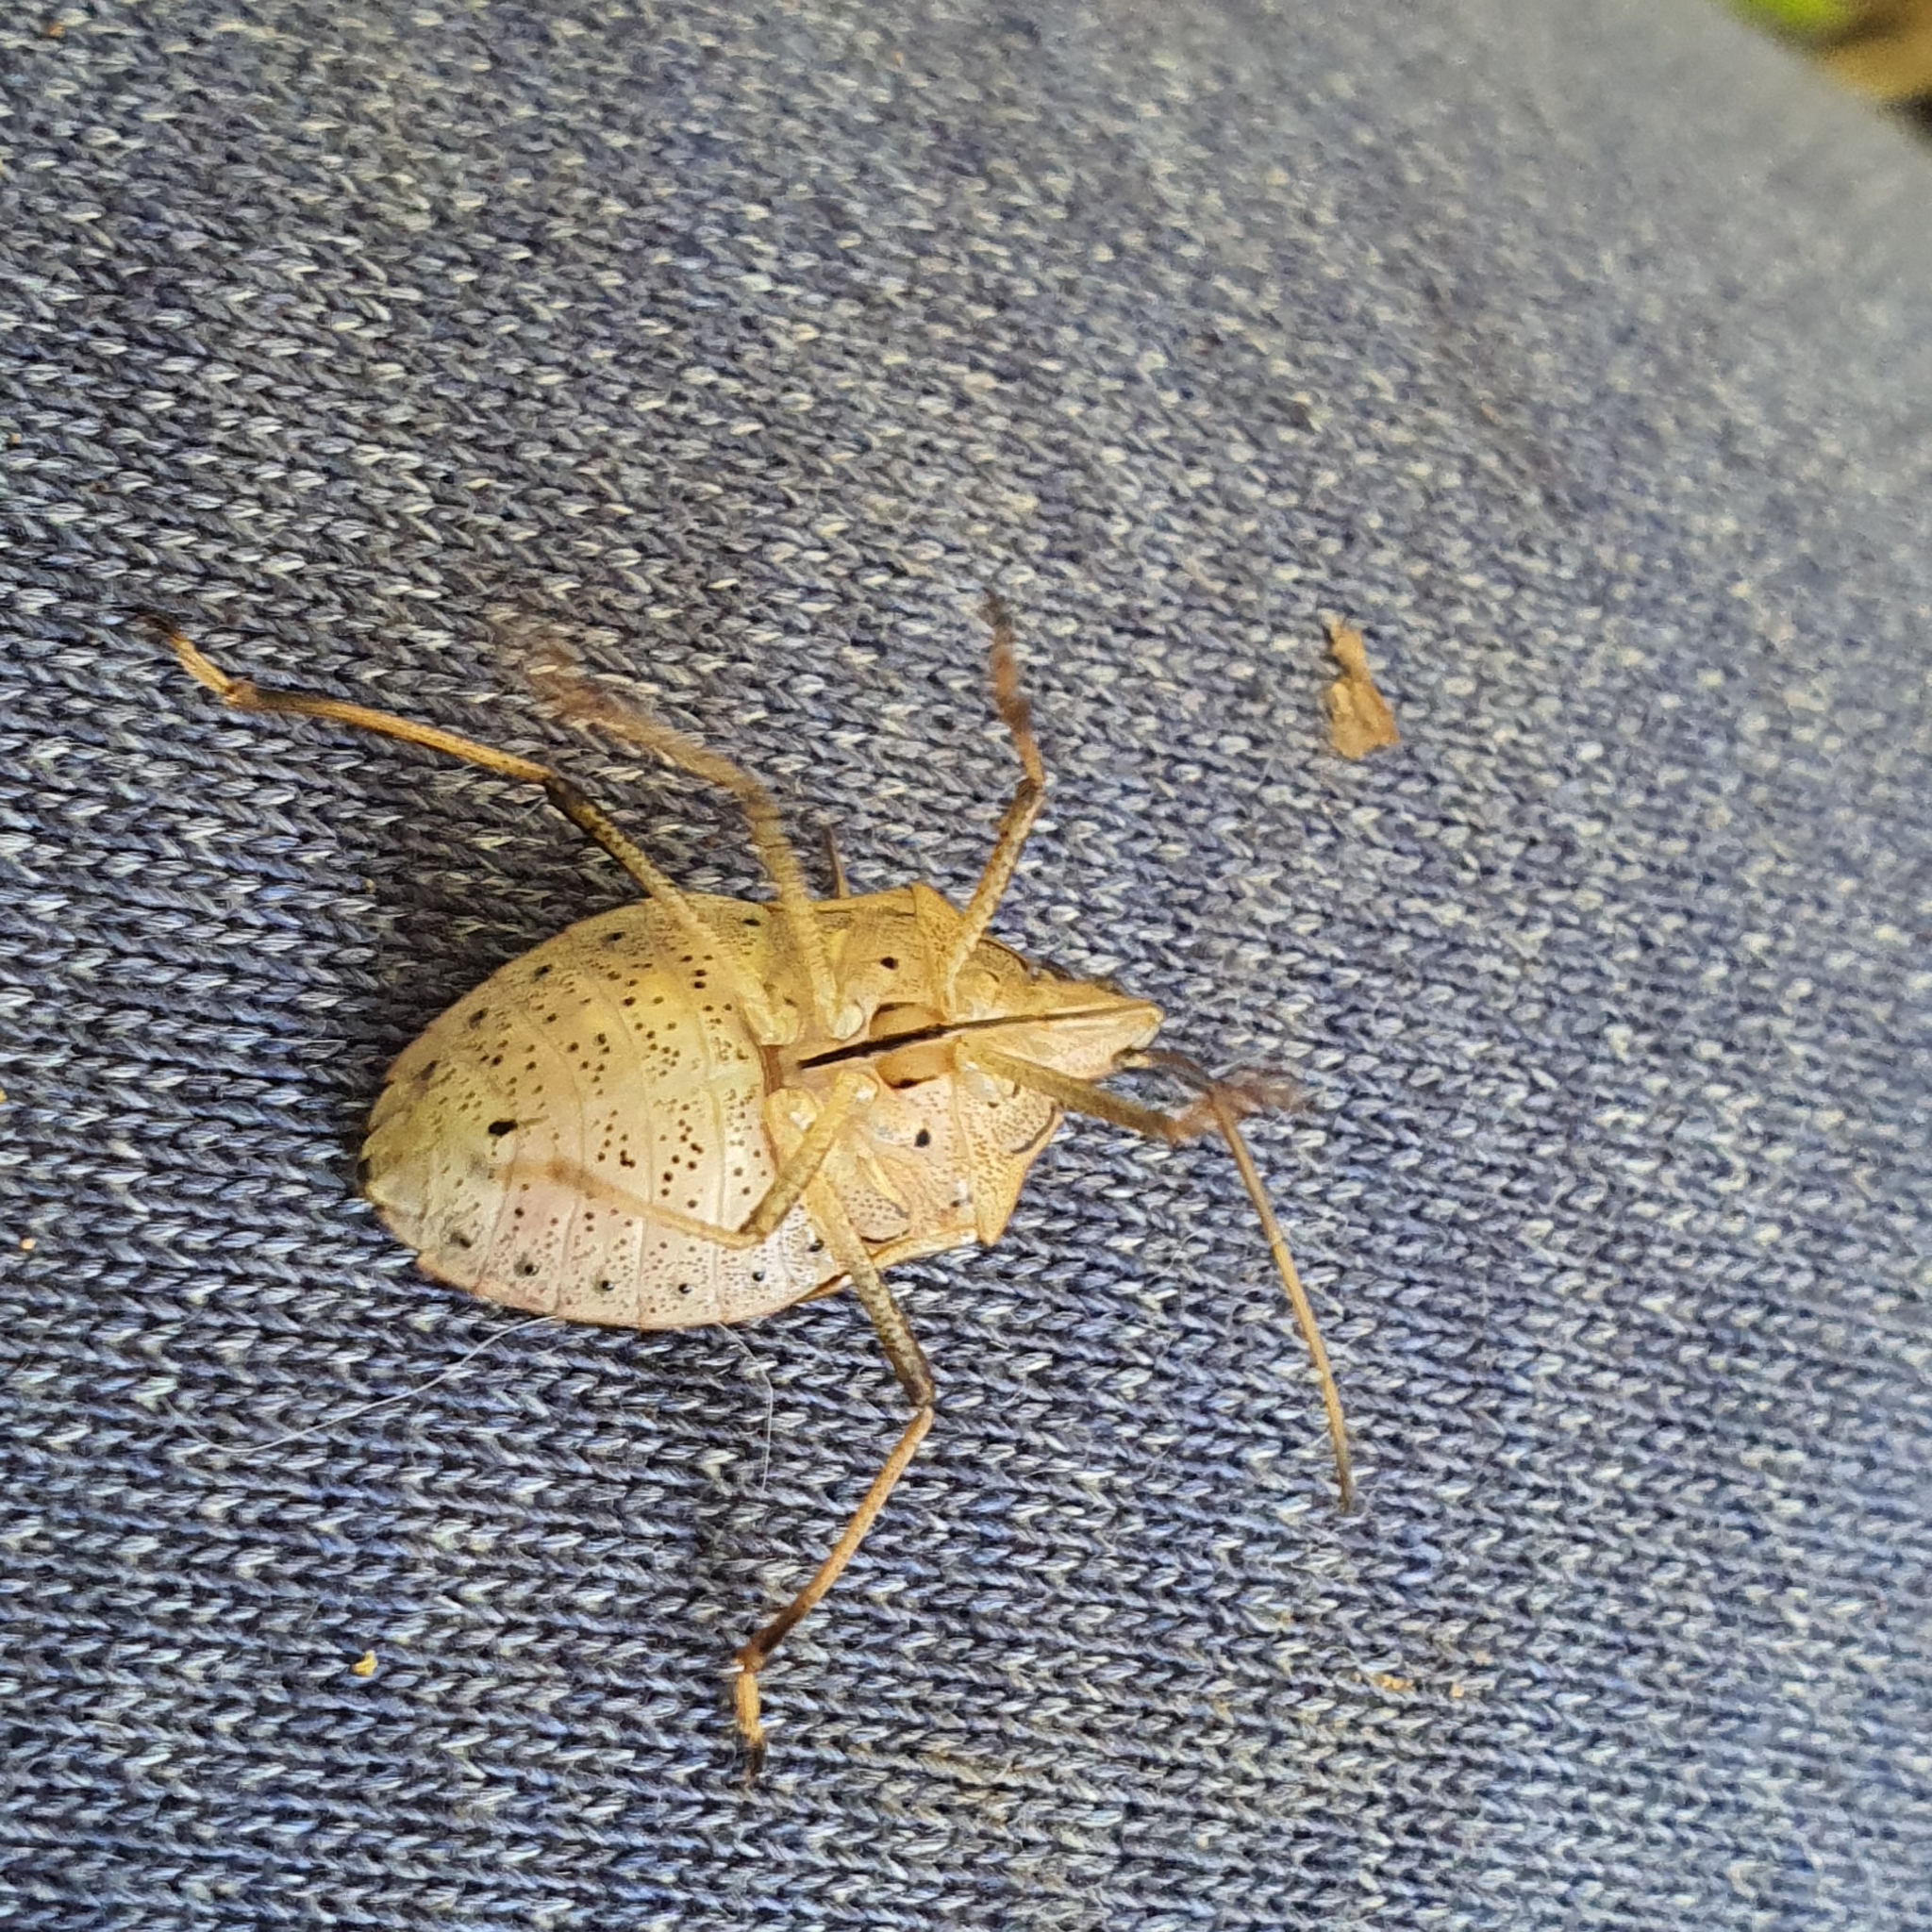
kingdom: Animalia
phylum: Arthropoda
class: Insecta
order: Hemiptera
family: Pentatomidae
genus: Poecilometis
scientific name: Poecilometis
